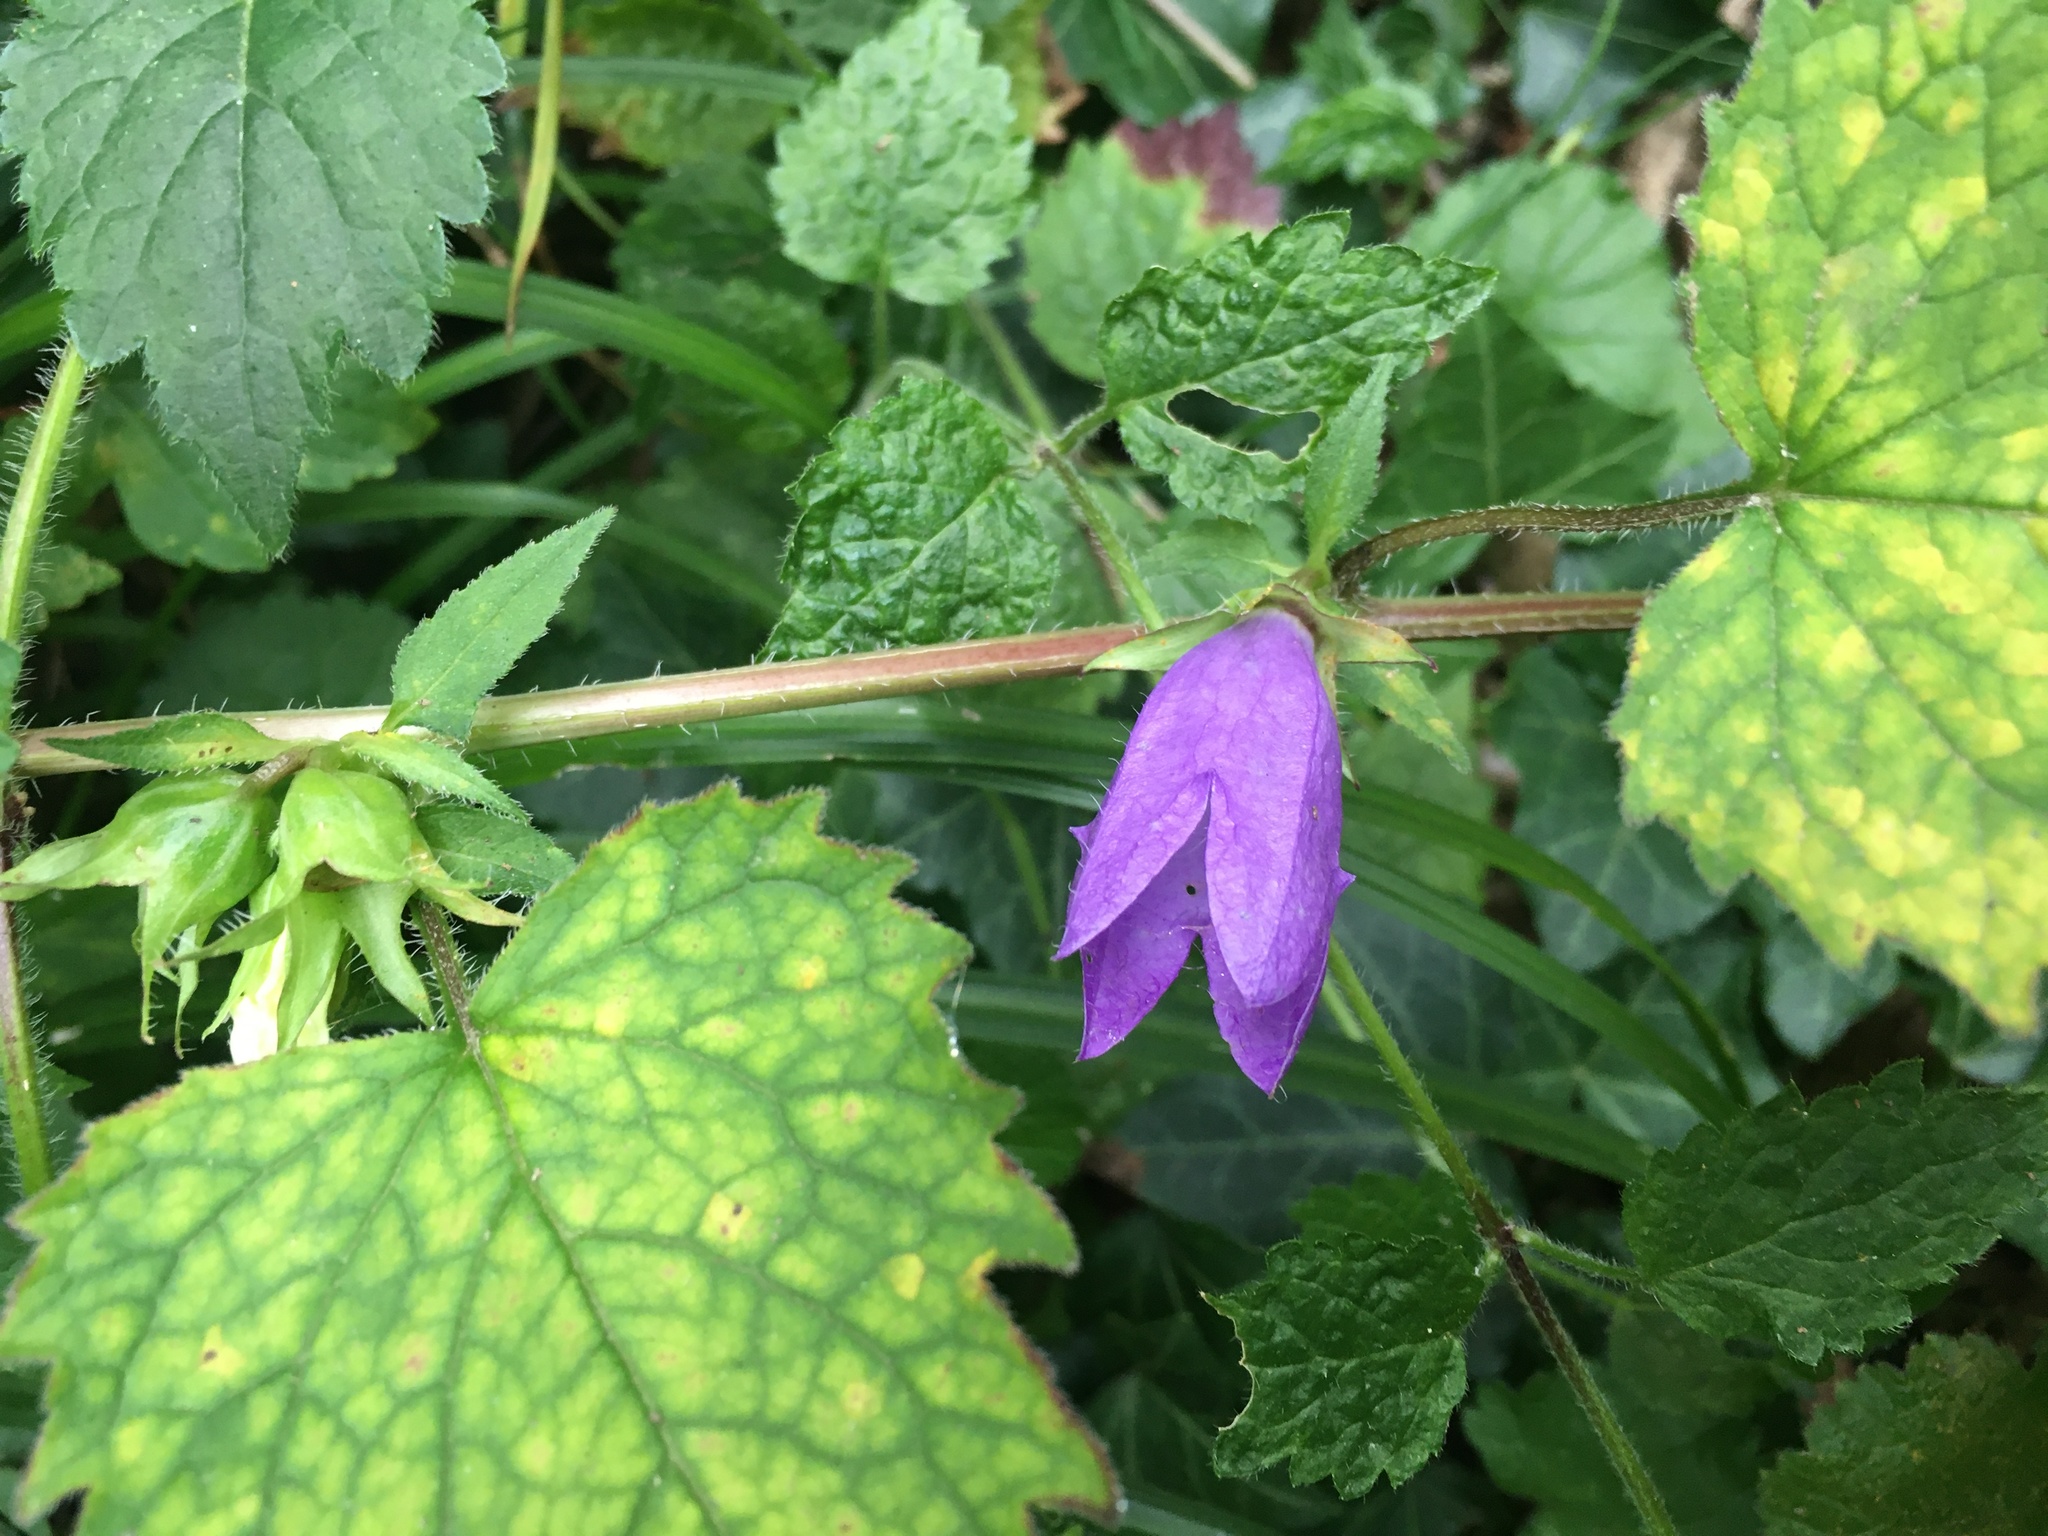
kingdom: Plantae
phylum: Tracheophyta
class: Magnoliopsida
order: Asterales
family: Campanulaceae
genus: Campanula
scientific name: Campanula trachelium
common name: Nettle-leaved bellflower
